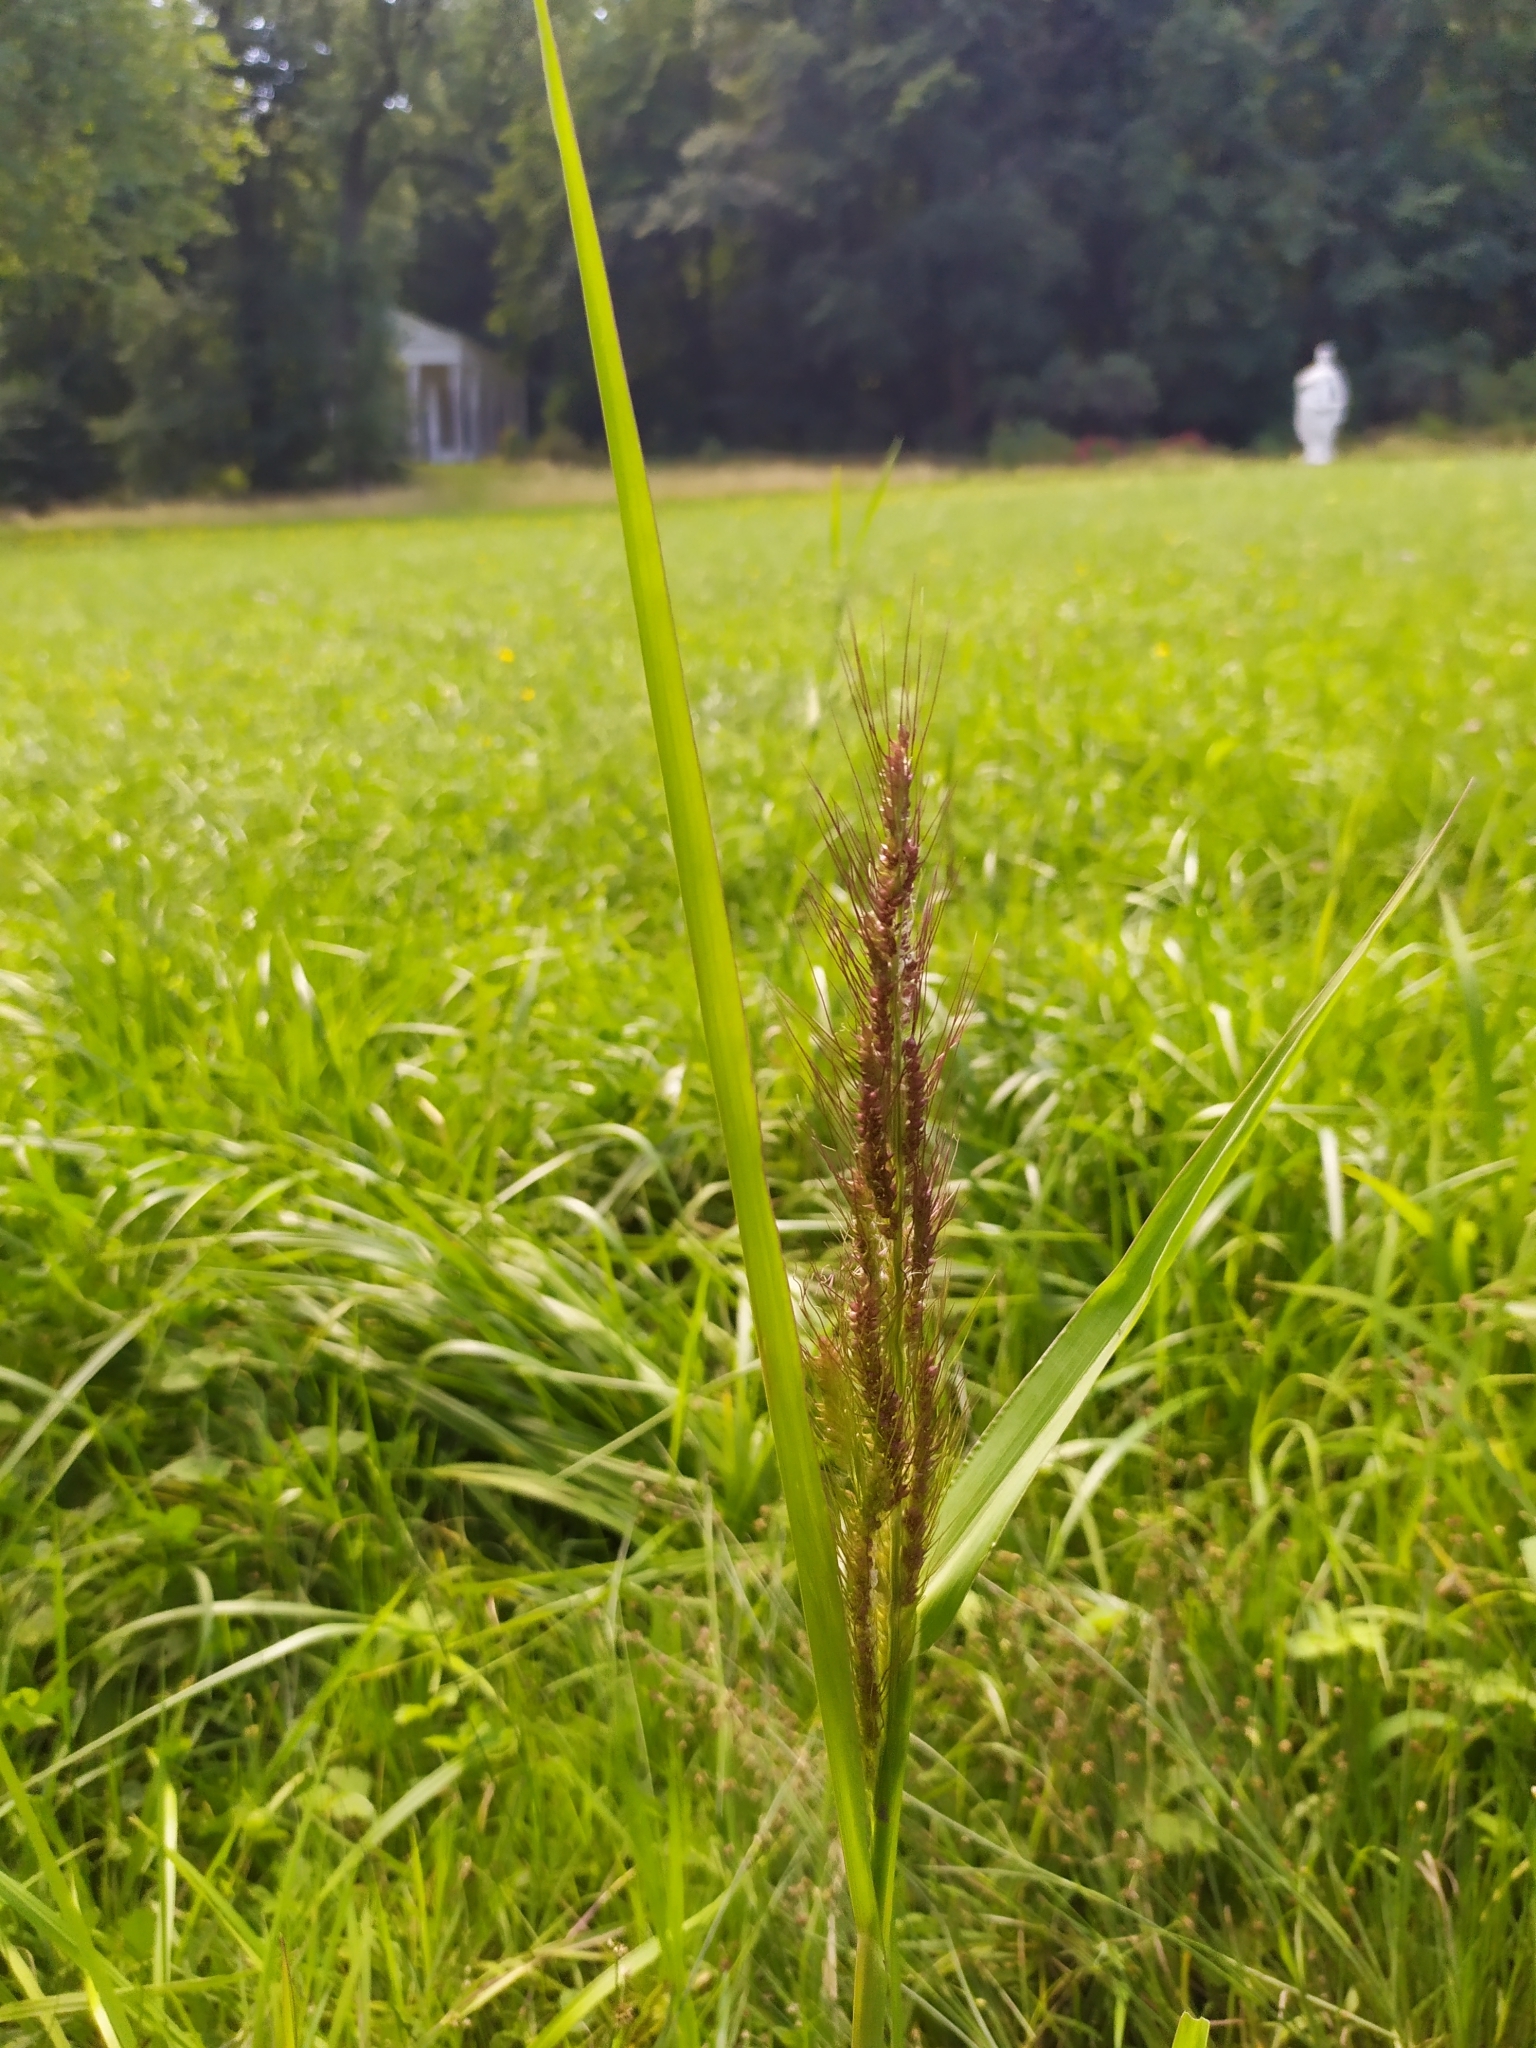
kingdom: Plantae
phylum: Tracheophyta
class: Liliopsida
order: Poales
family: Poaceae
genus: Echinochloa
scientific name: Echinochloa crus-galli
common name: Cockspur
